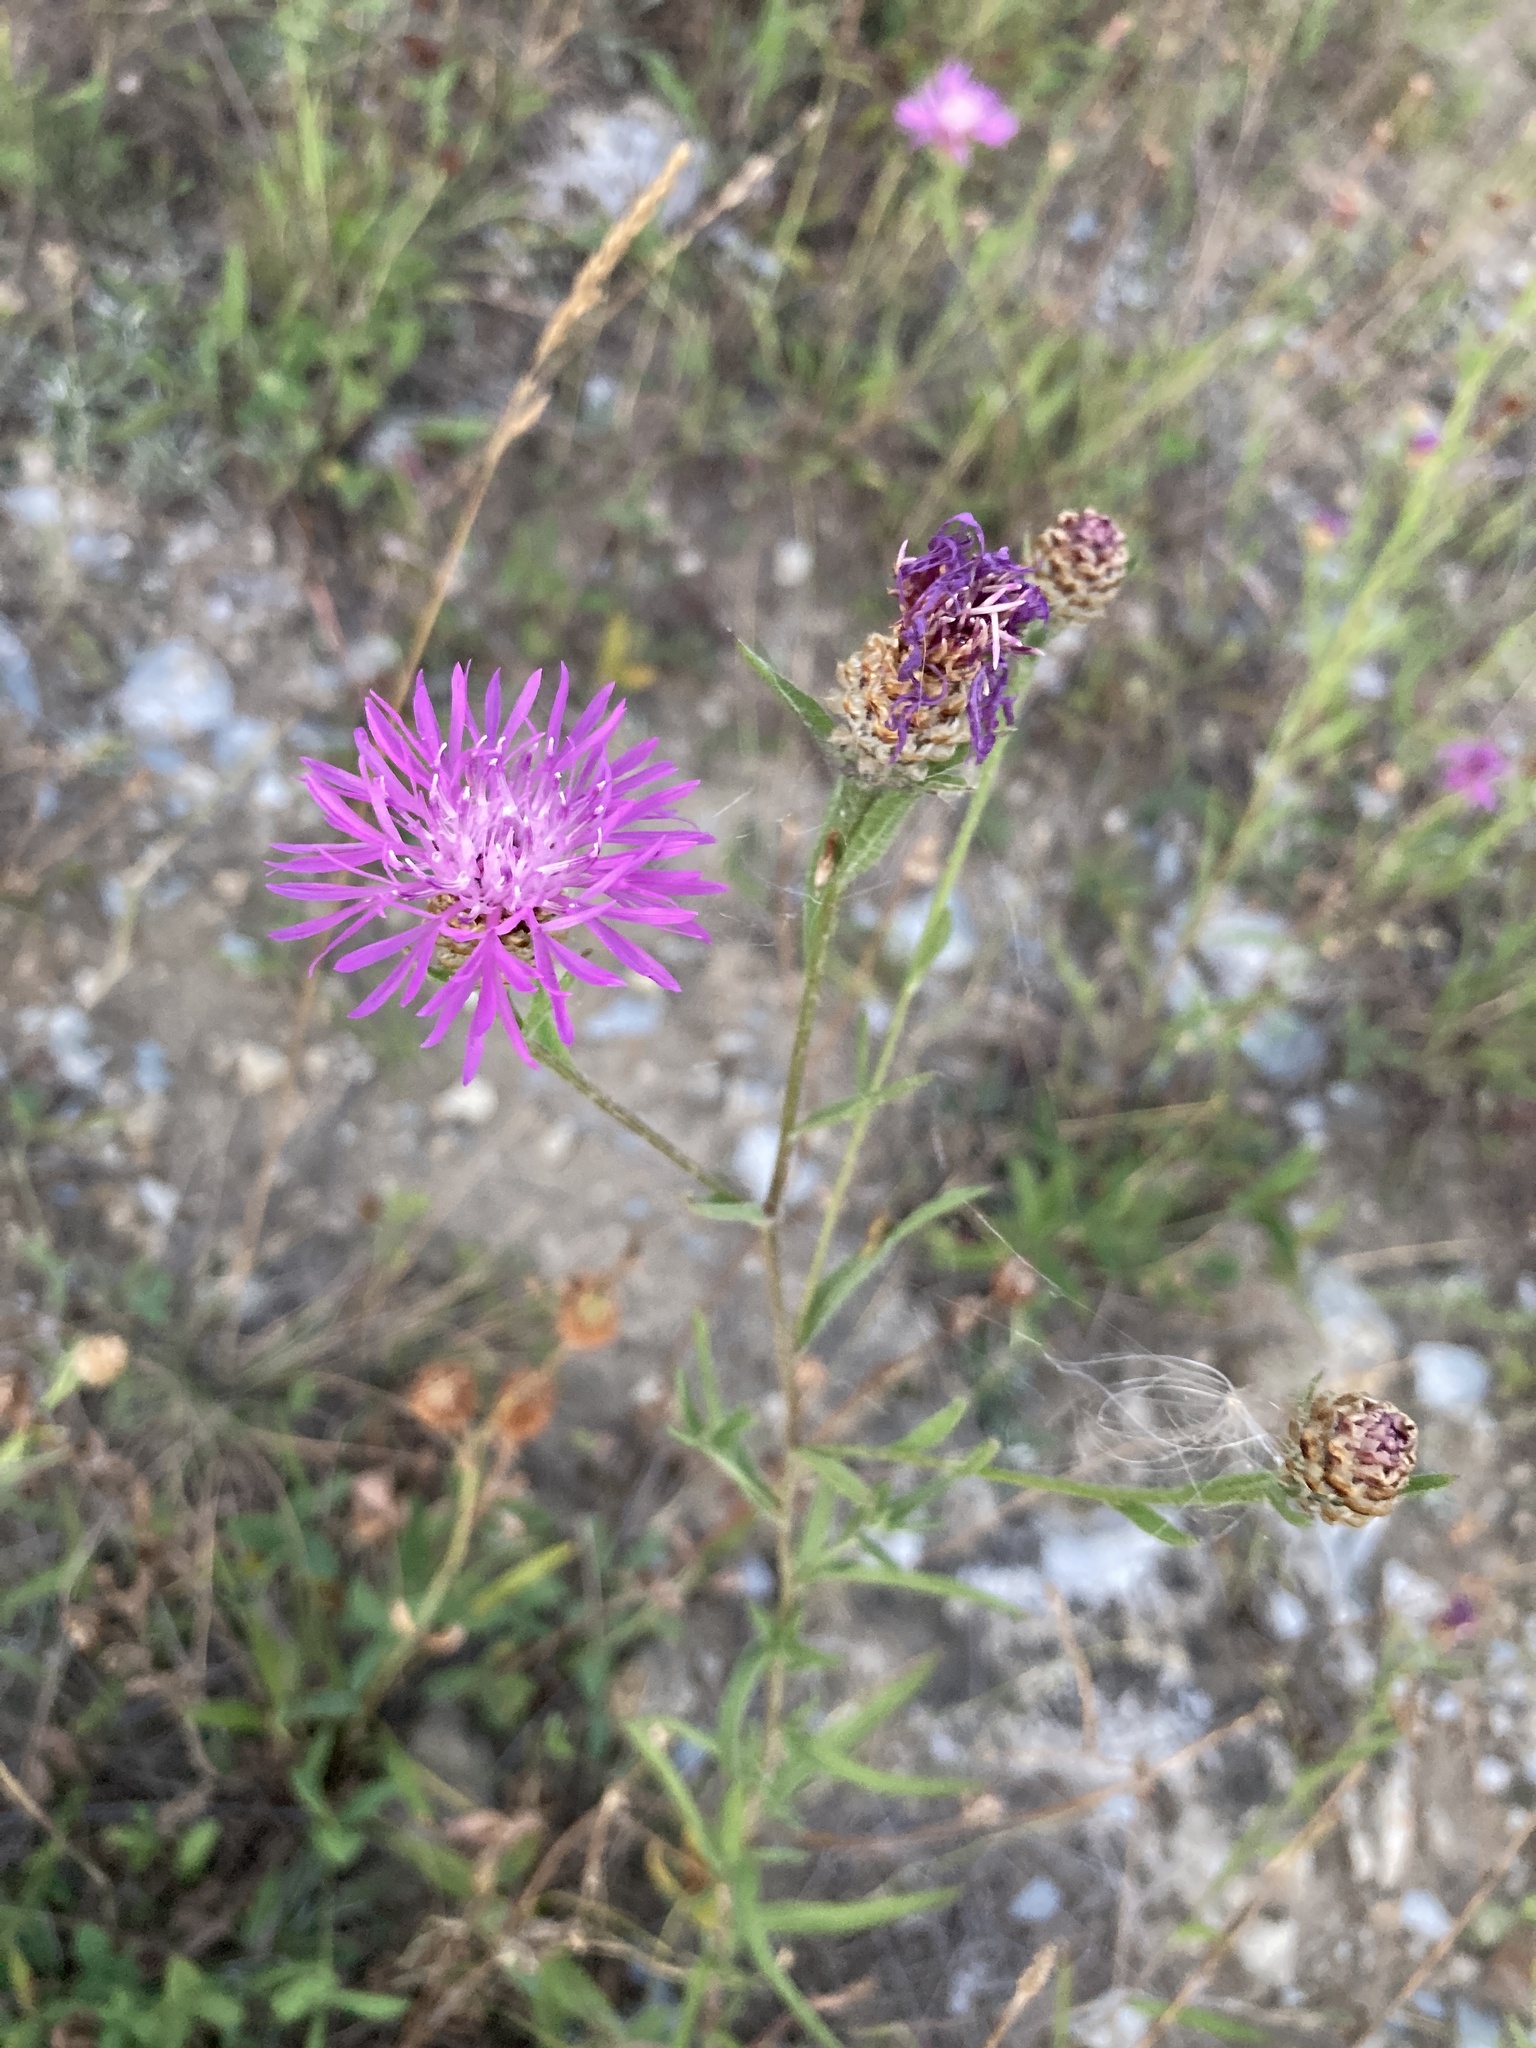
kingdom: Plantae
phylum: Tracheophyta
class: Magnoliopsida
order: Asterales
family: Asteraceae
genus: Centaurea
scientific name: Centaurea jacea
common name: Brown knapweed
